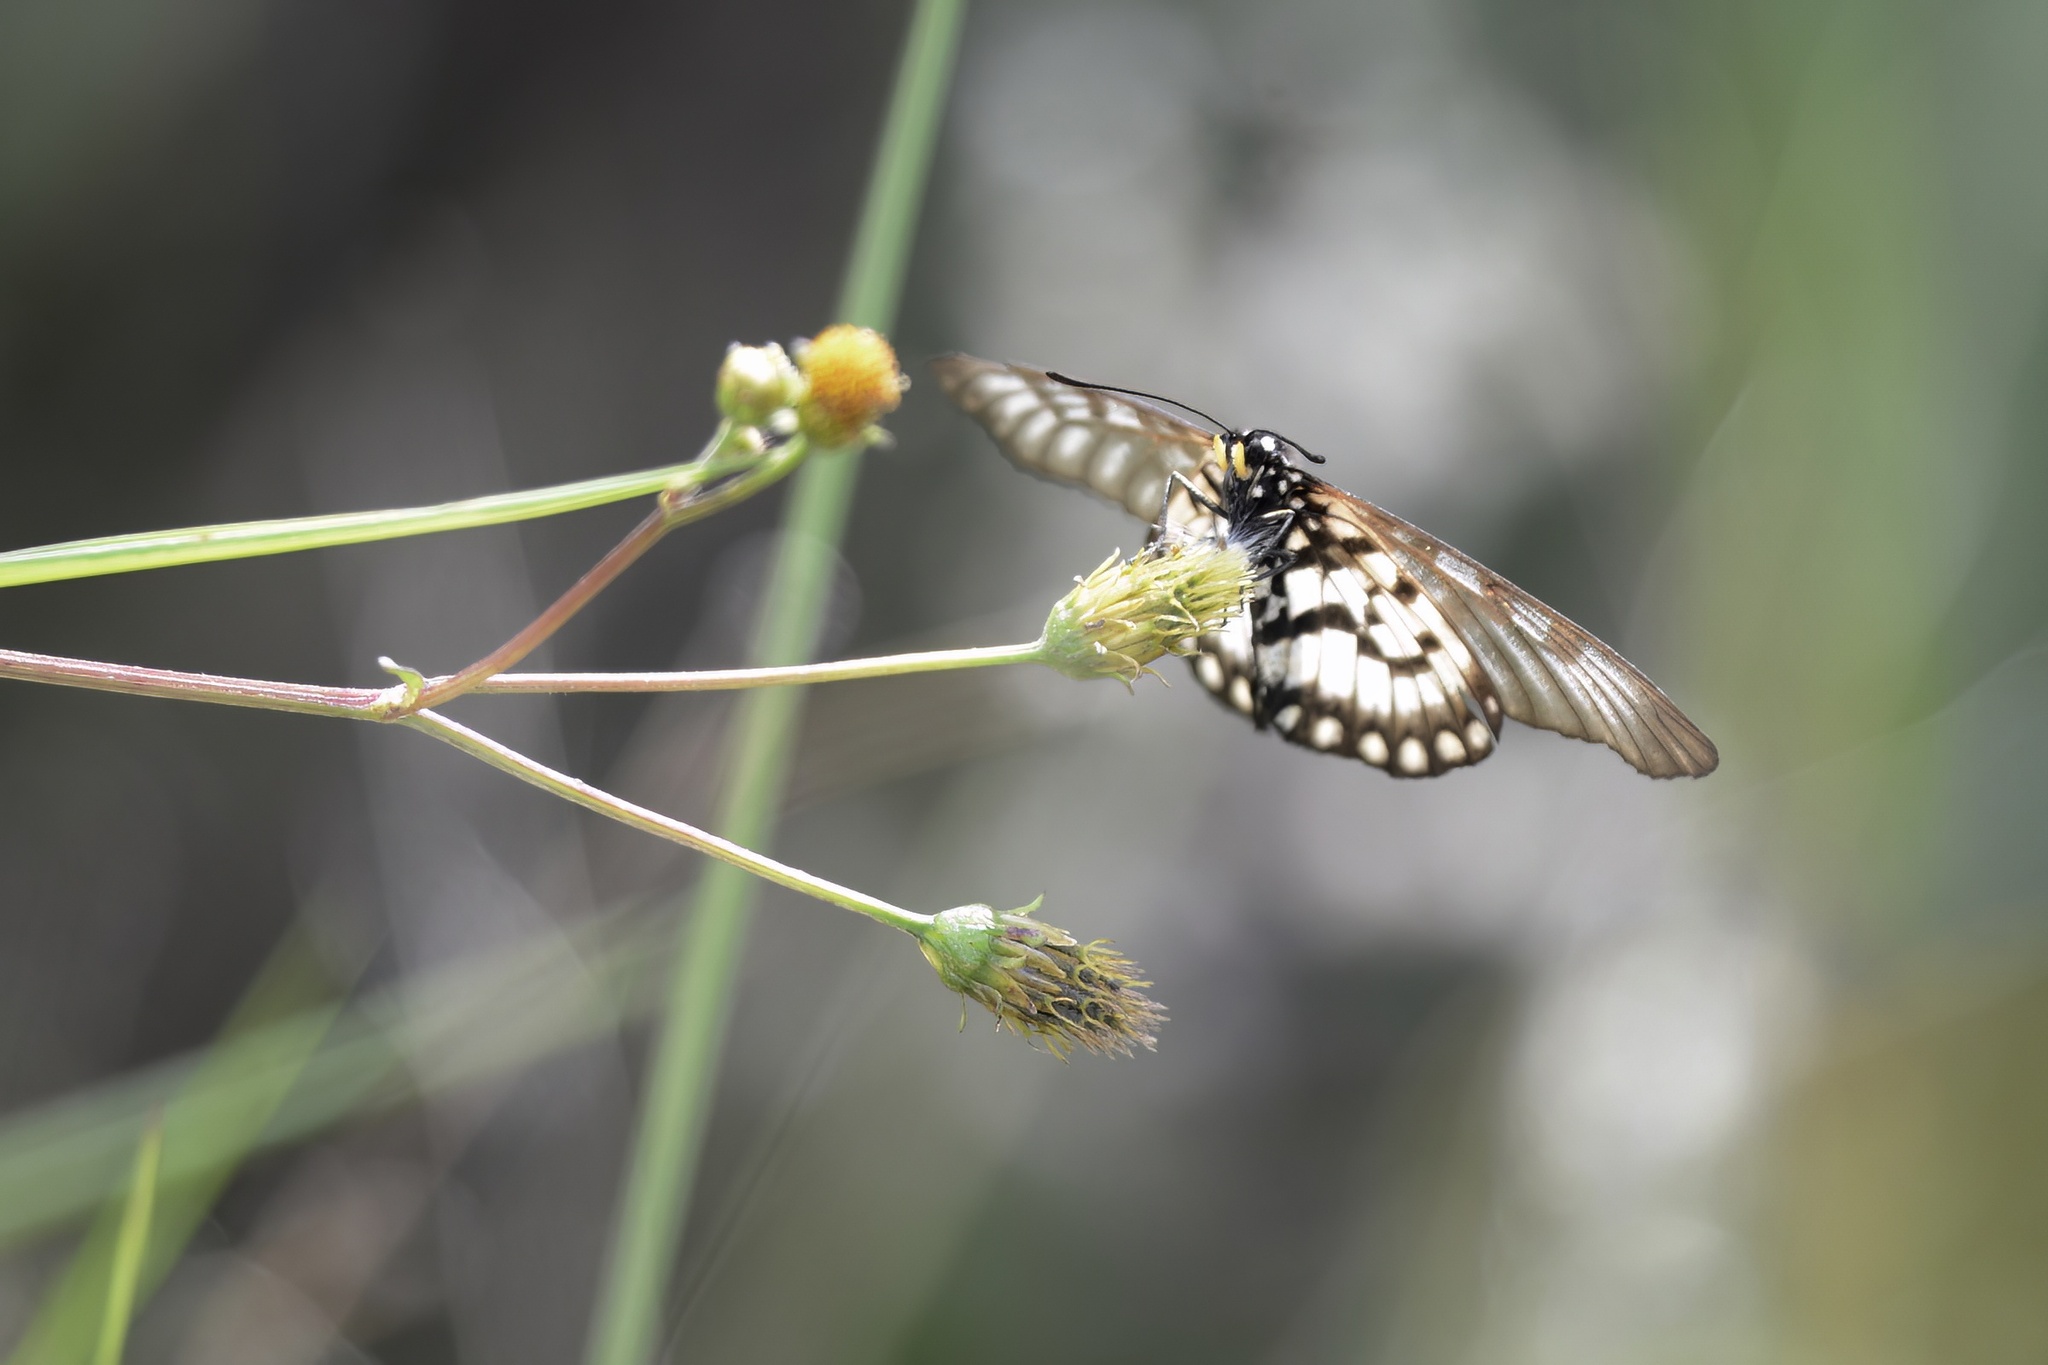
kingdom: Animalia
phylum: Arthropoda
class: Insecta
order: Lepidoptera
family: Nymphalidae
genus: Acraea
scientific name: Acraea andromacha
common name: Glasswing
